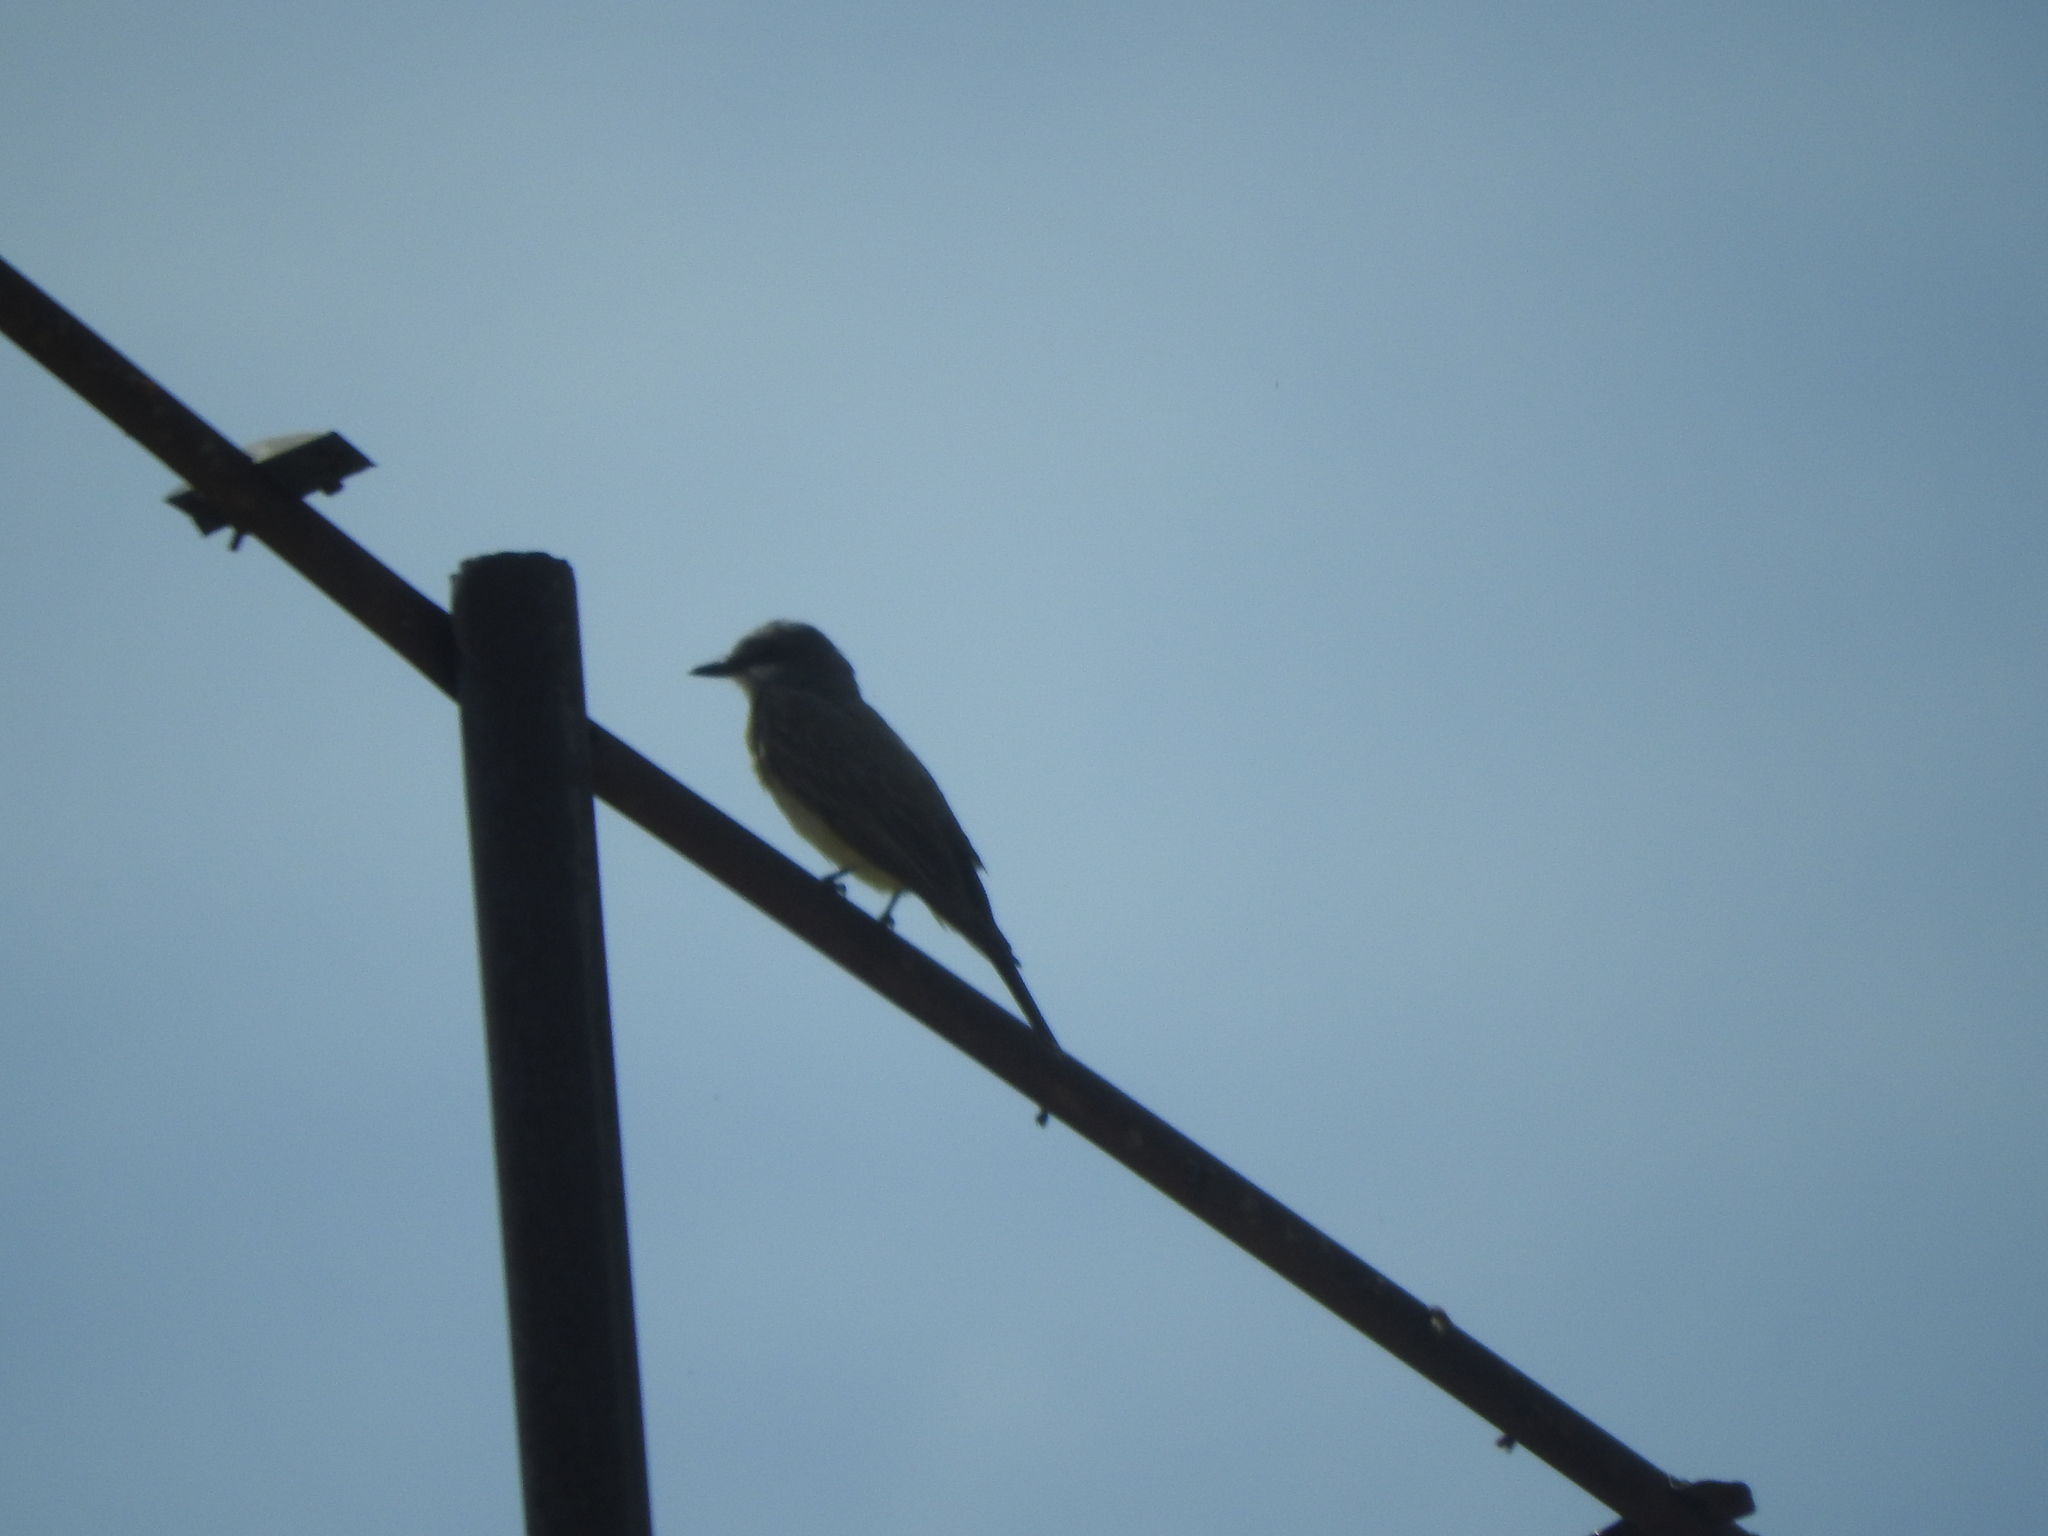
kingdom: Animalia
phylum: Chordata
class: Aves
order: Passeriformes
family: Tyrannidae
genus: Tyrannus
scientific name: Tyrannus vociferans
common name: Cassin's kingbird
